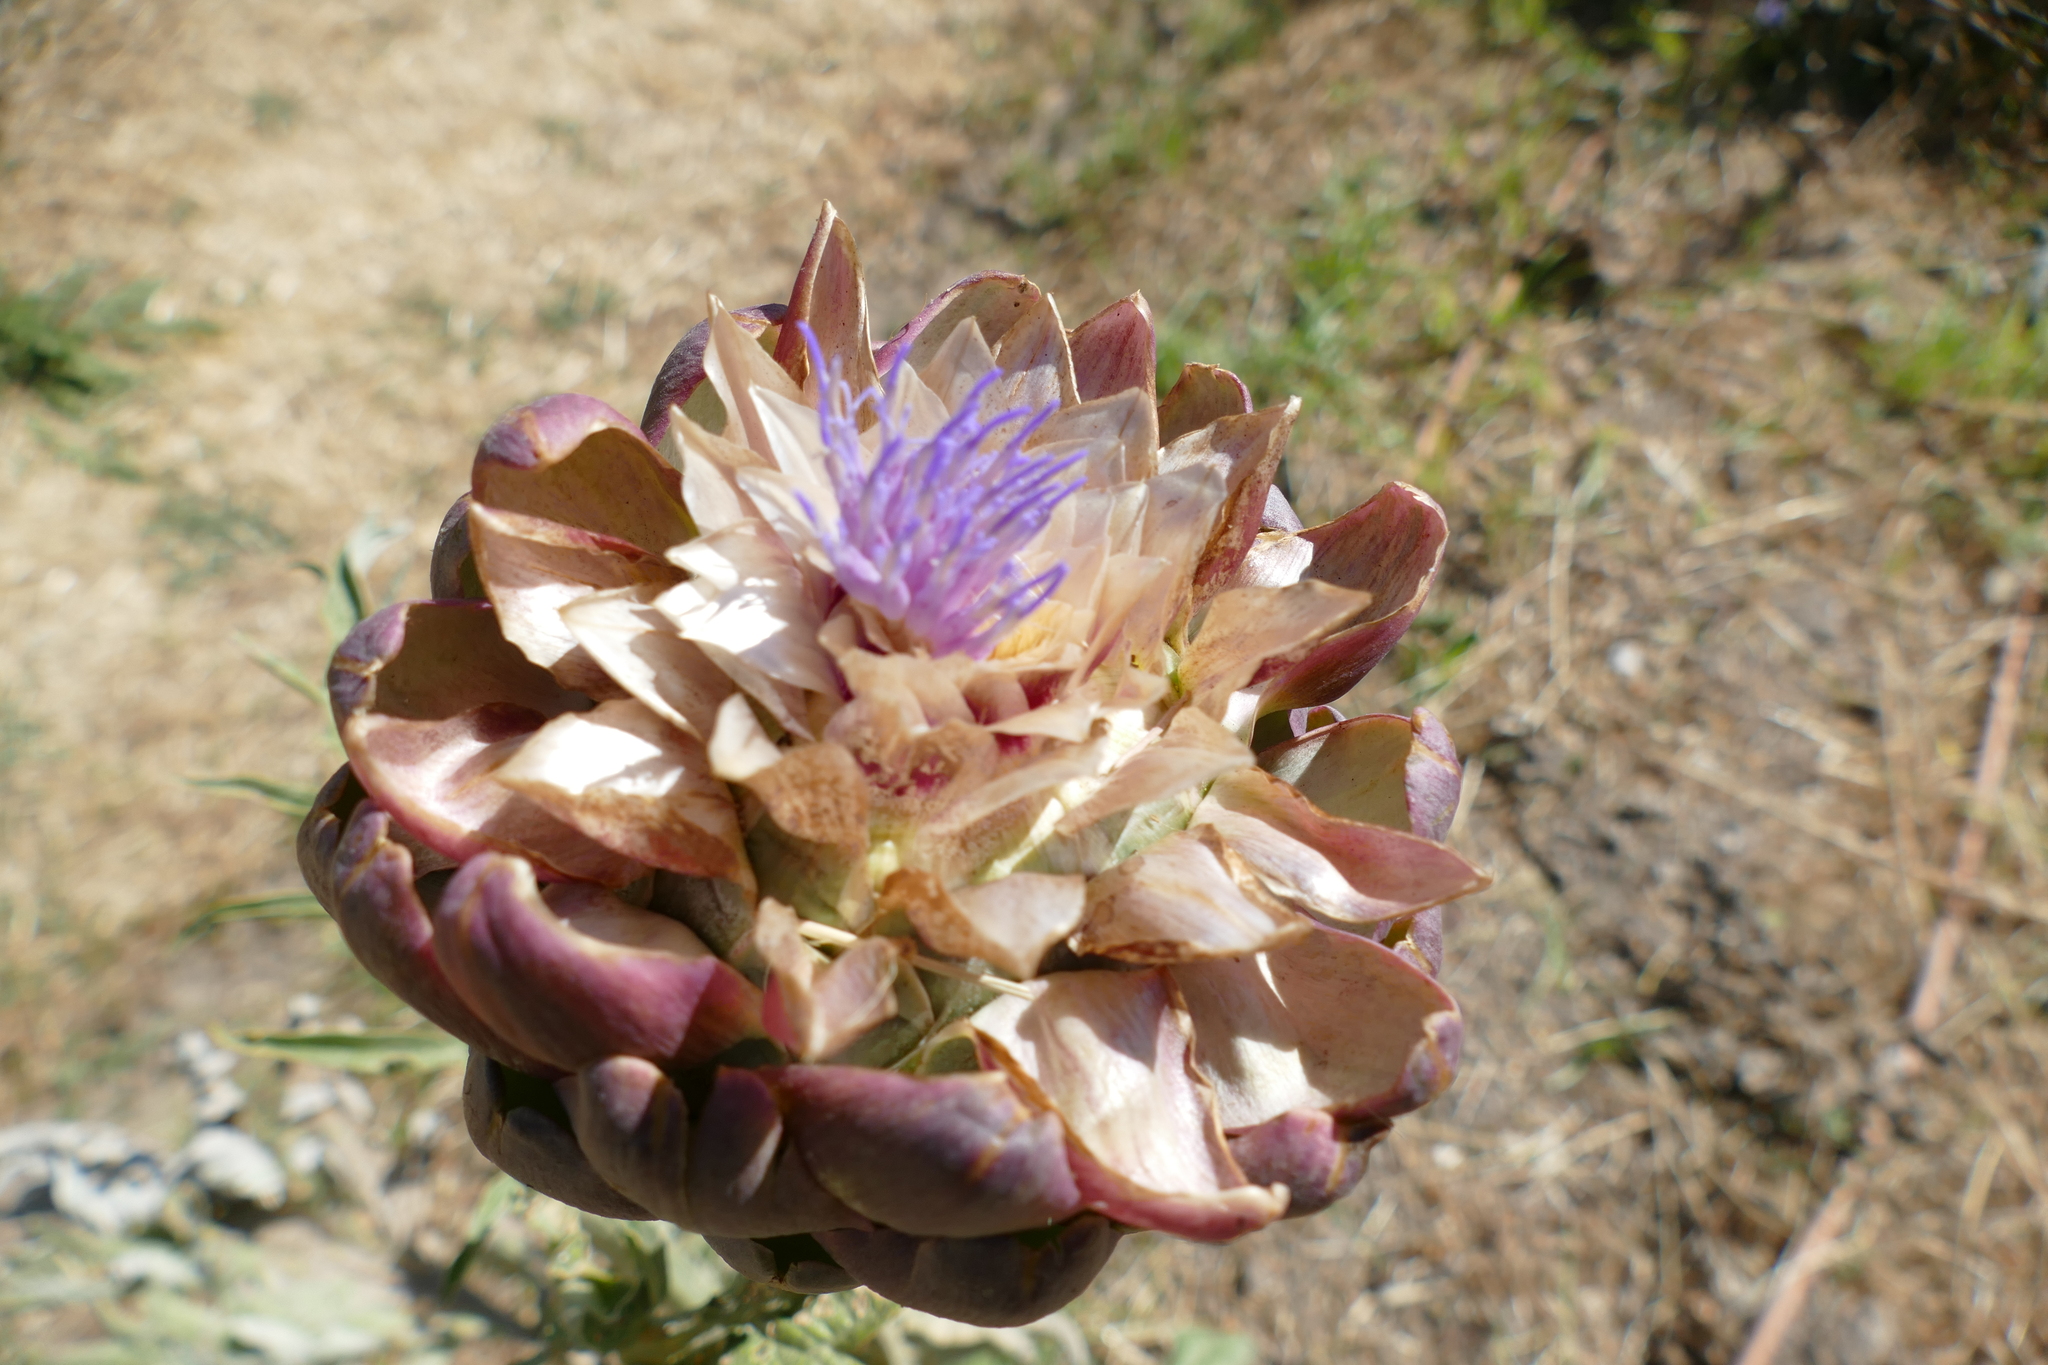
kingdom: Plantae
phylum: Tracheophyta
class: Magnoliopsida
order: Asterales
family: Asteraceae
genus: Cynara
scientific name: Cynara cardunculus
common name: Globe artichoke
